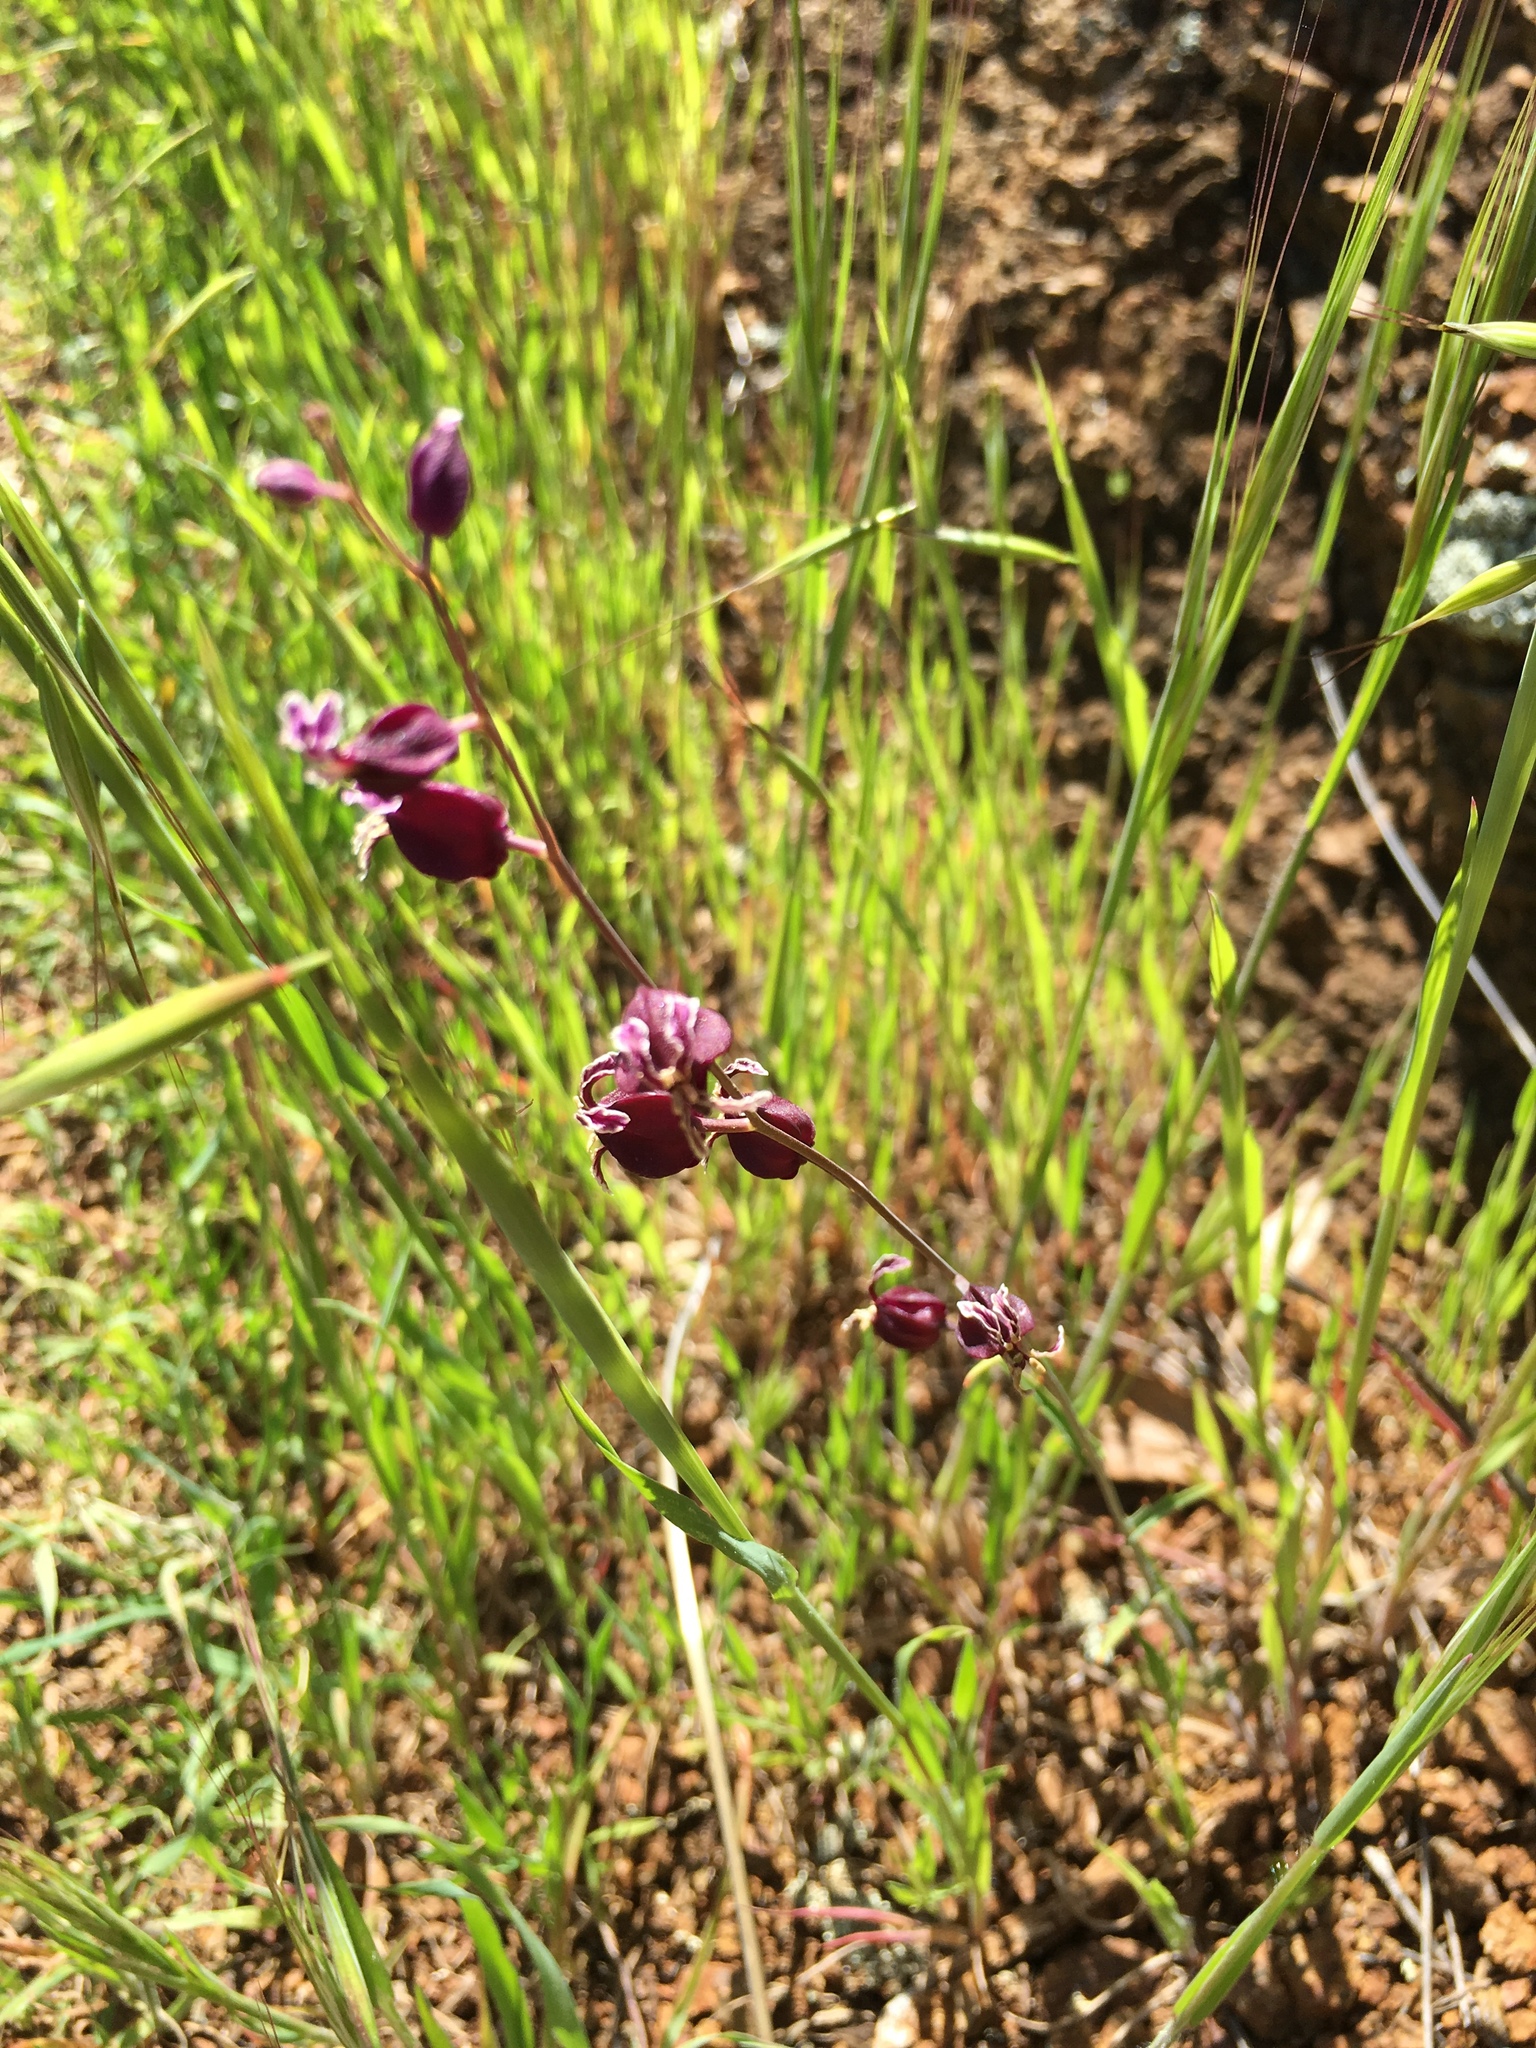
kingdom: Plantae
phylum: Tracheophyta
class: Magnoliopsida
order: Brassicales
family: Brassicaceae
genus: Streptanthus
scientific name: Streptanthus glandulosus
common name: Jewel-flower
